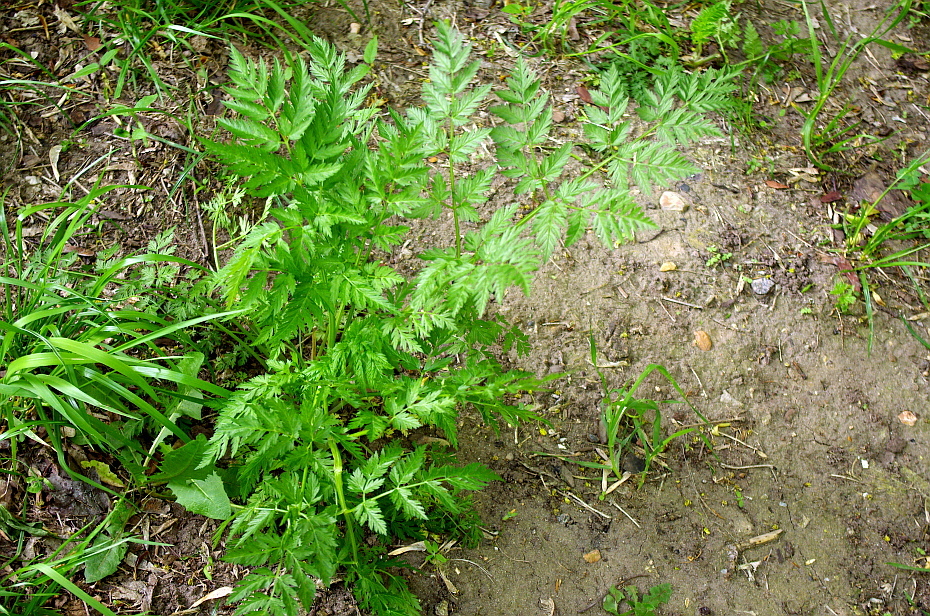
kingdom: Plantae
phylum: Tracheophyta
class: Magnoliopsida
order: Apiales
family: Apiaceae
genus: Anthriscus
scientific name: Anthriscus sylvestris
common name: Cow parsley
